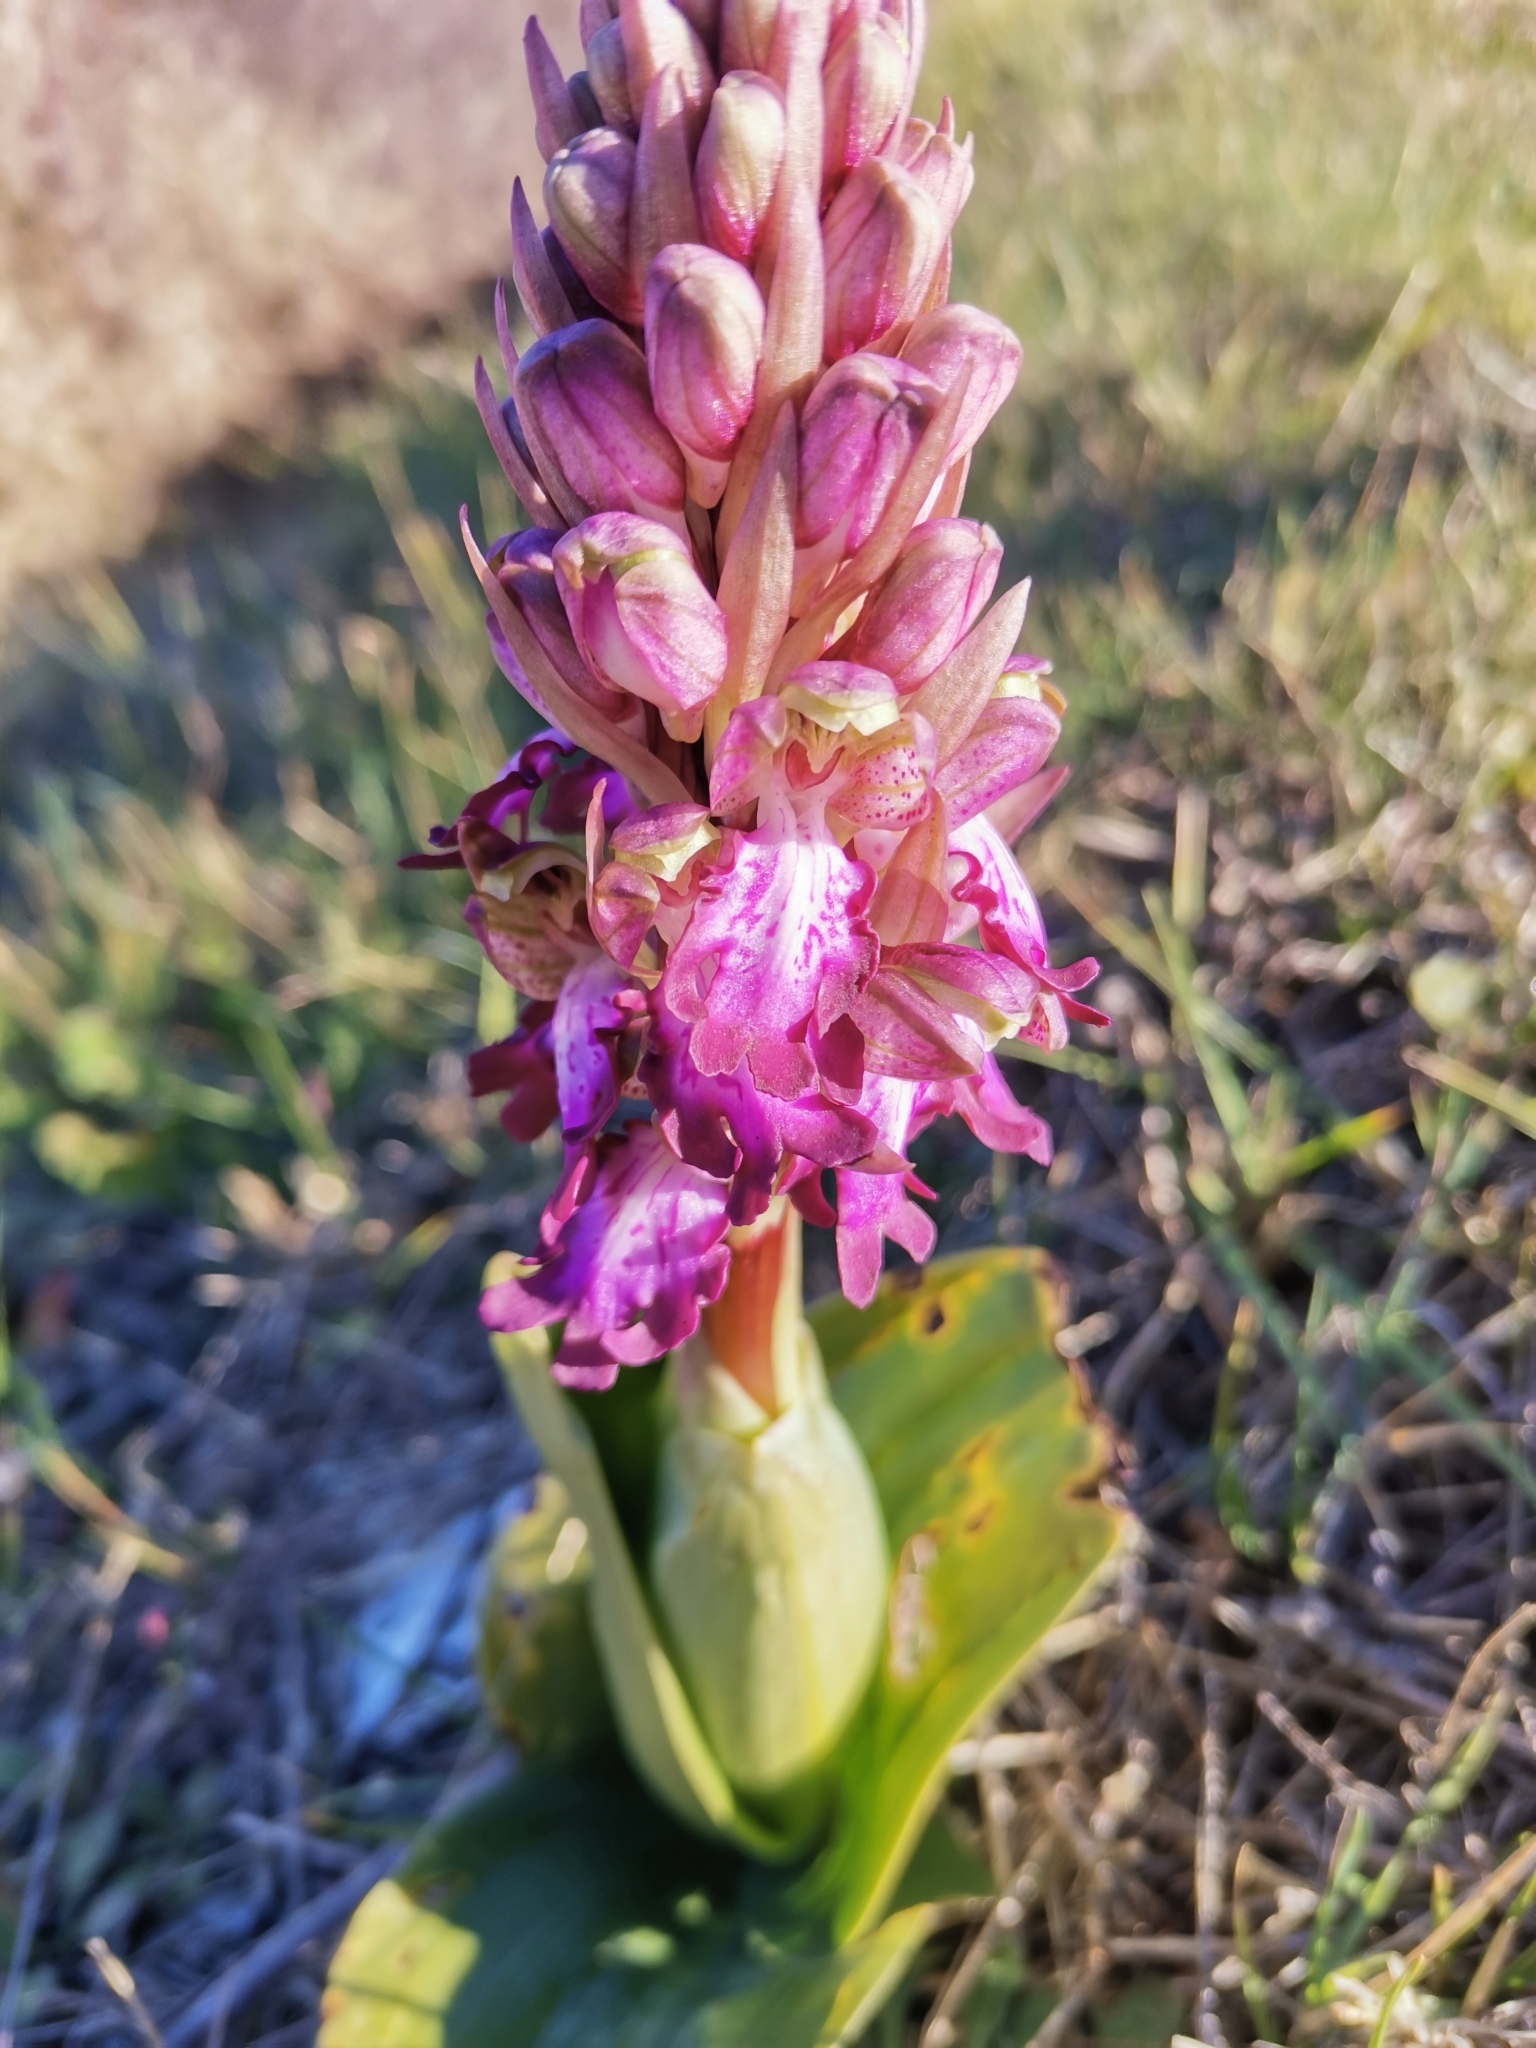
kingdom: Plantae
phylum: Tracheophyta
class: Liliopsida
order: Asparagales
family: Orchidaceae
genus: Himantoglossum
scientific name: Himantoglossum robertianum
